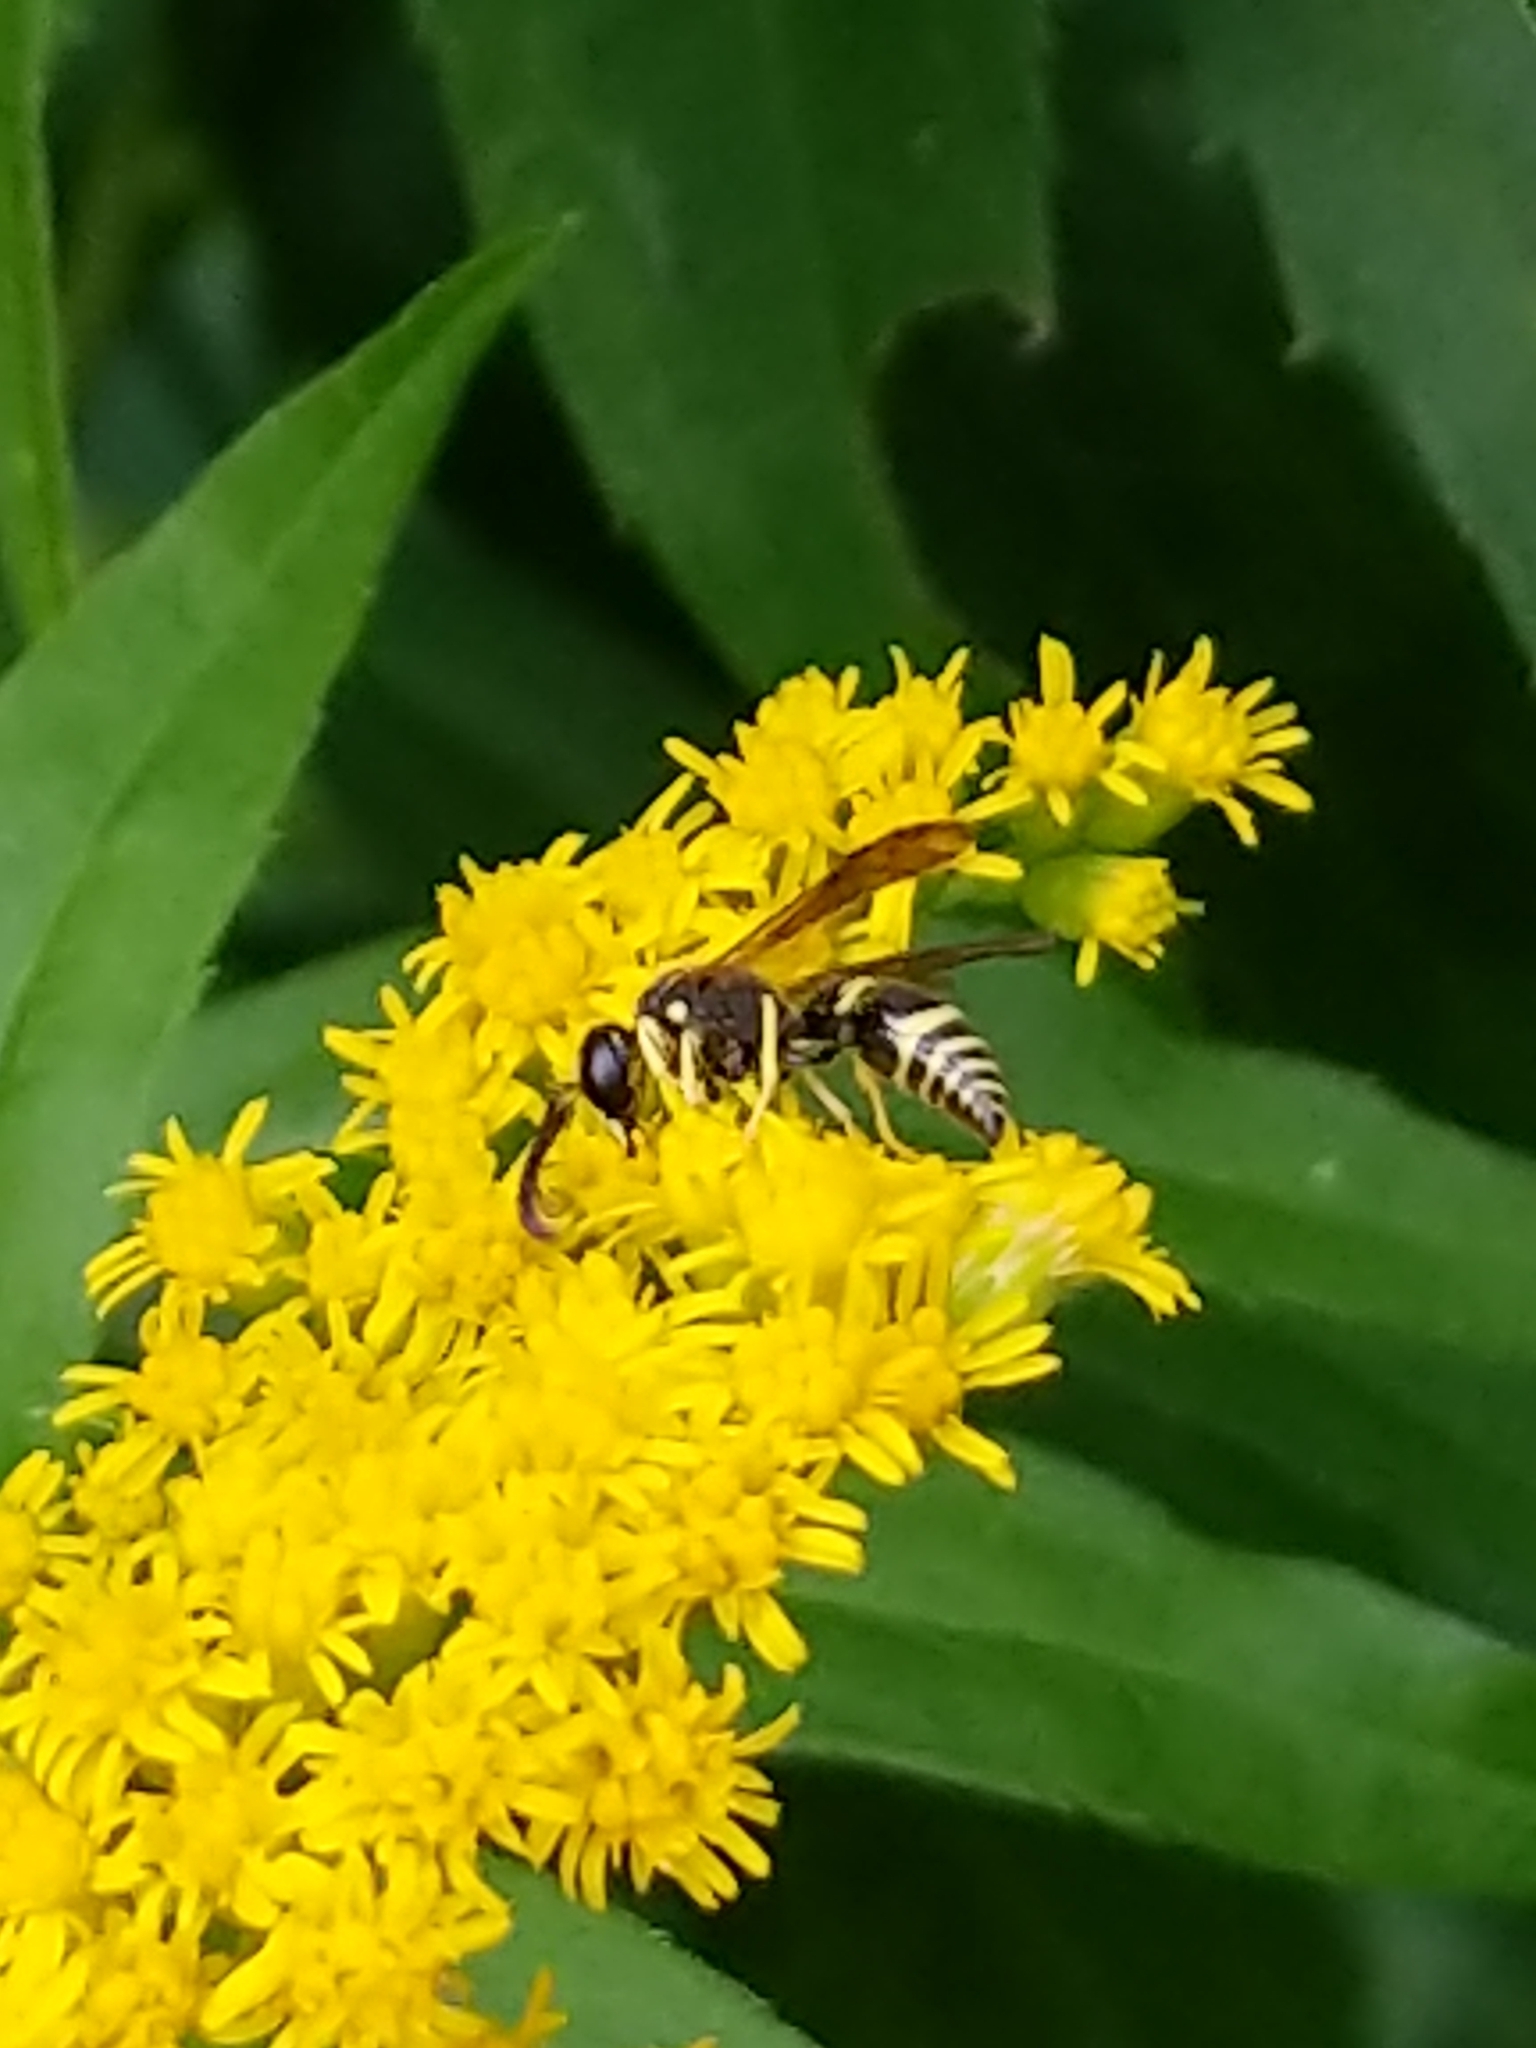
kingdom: Animalia
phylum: Arthropoda
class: Insecta
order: Hymenoptera
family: Vespidae
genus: Ancistrocerus
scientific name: Ancistrocerus
